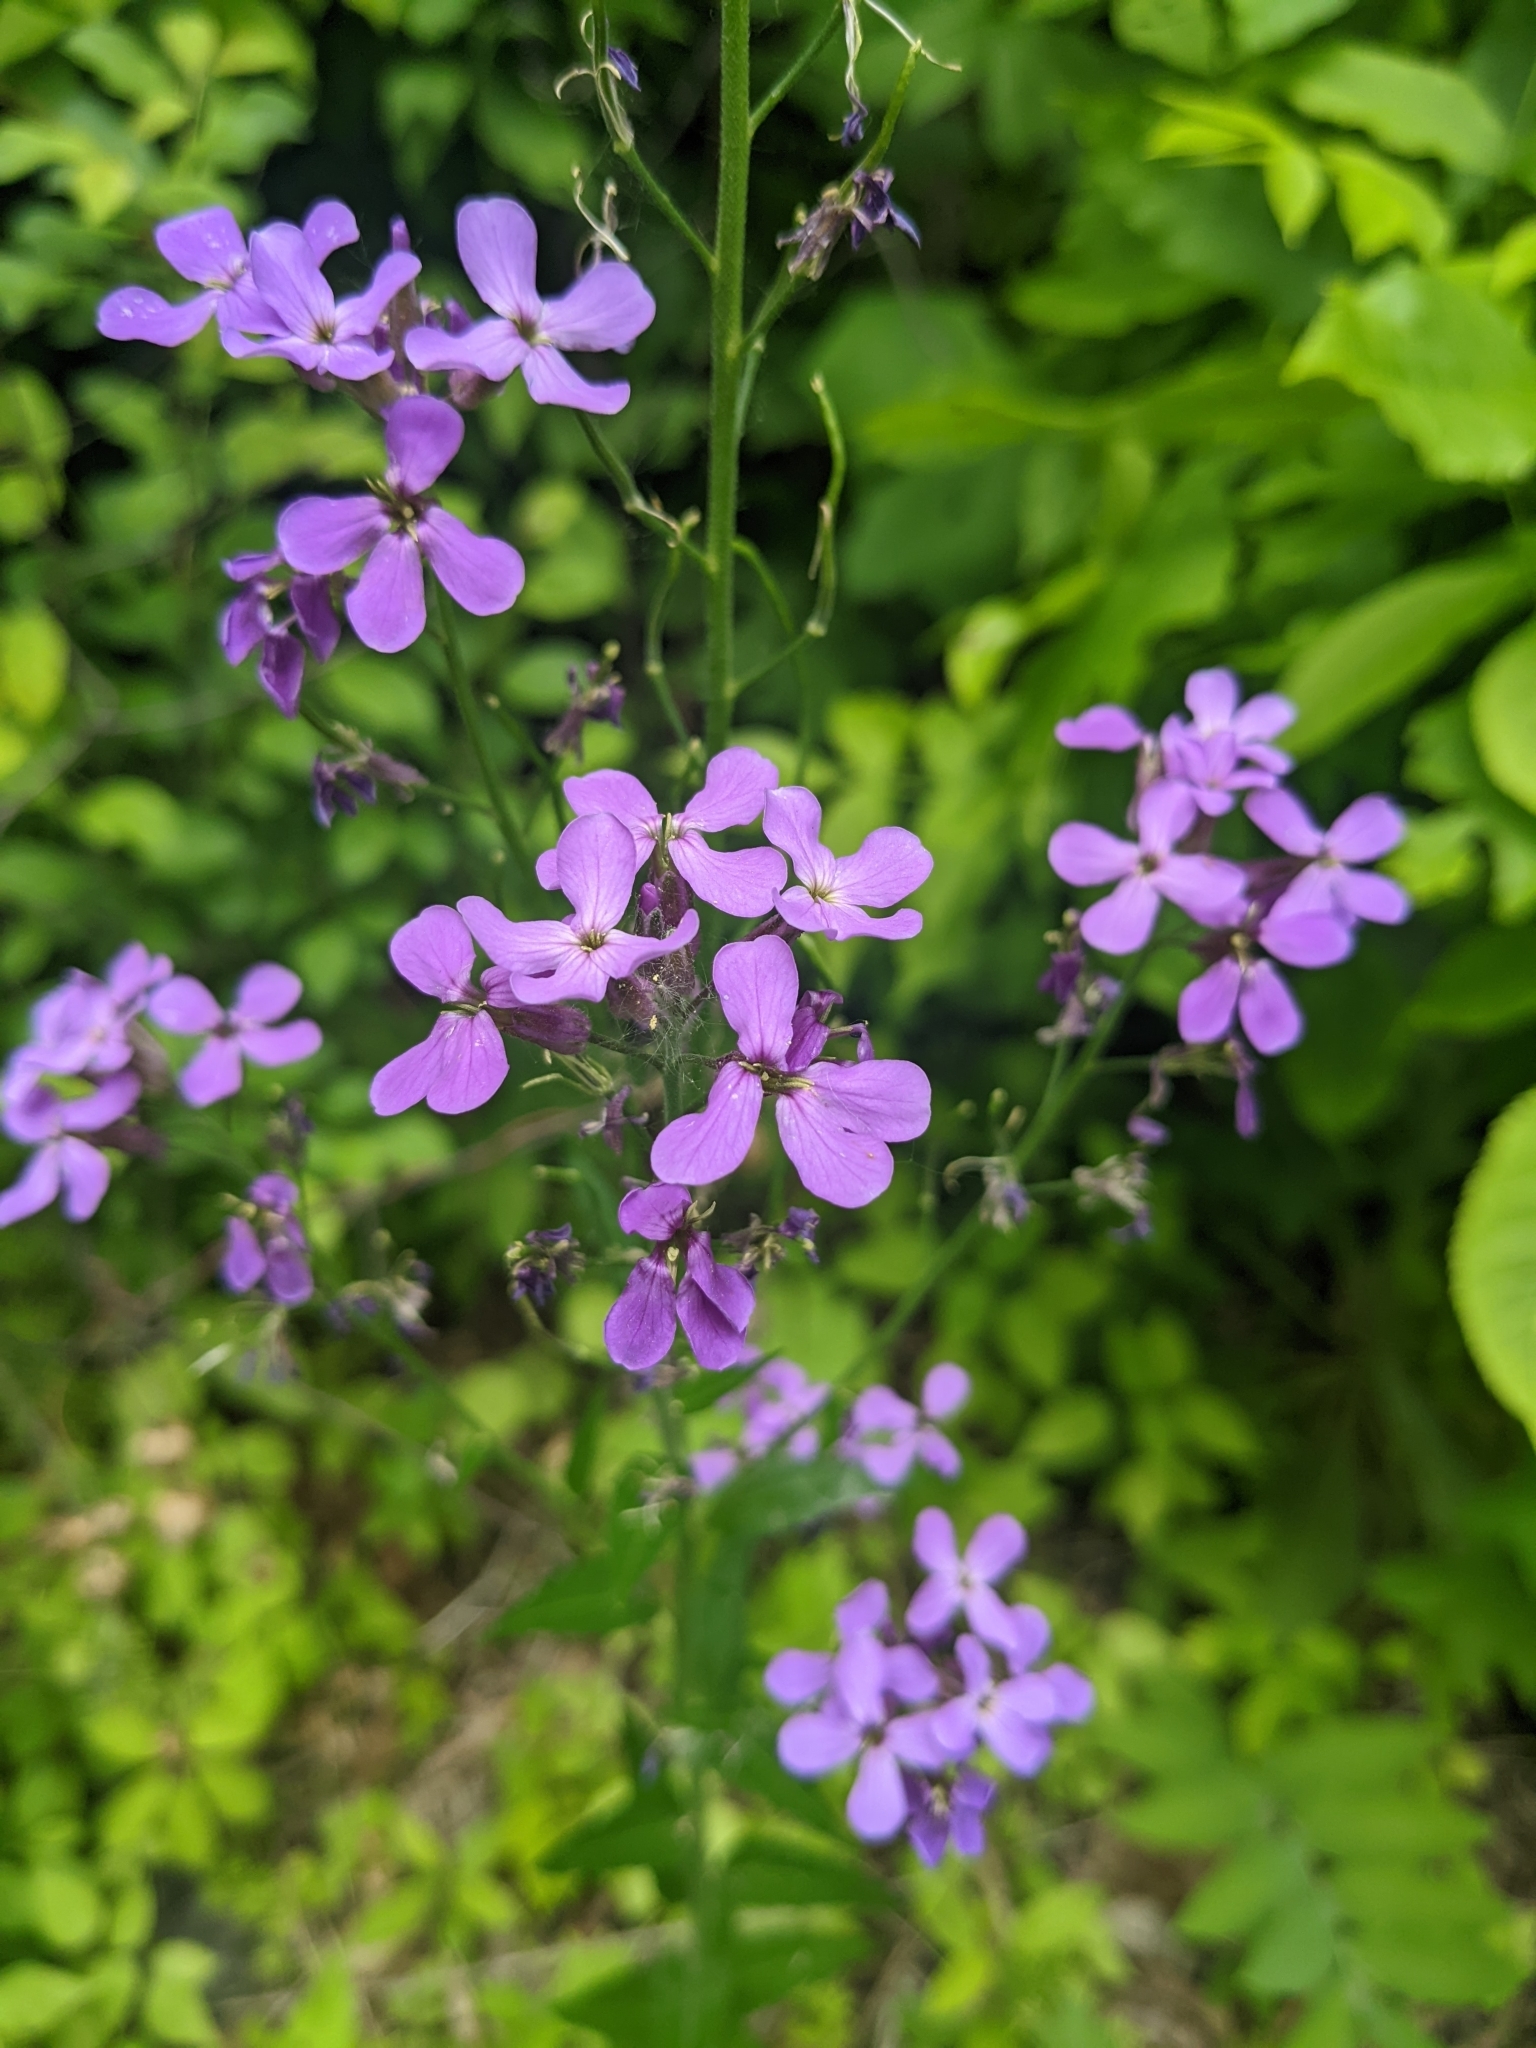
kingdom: Plantae
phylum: Tracheophyta
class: Magnoliopsida
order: Brassicales
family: Brassicaceae
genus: Hesperis
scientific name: Hesperis matronalis
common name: Dame's-violet
